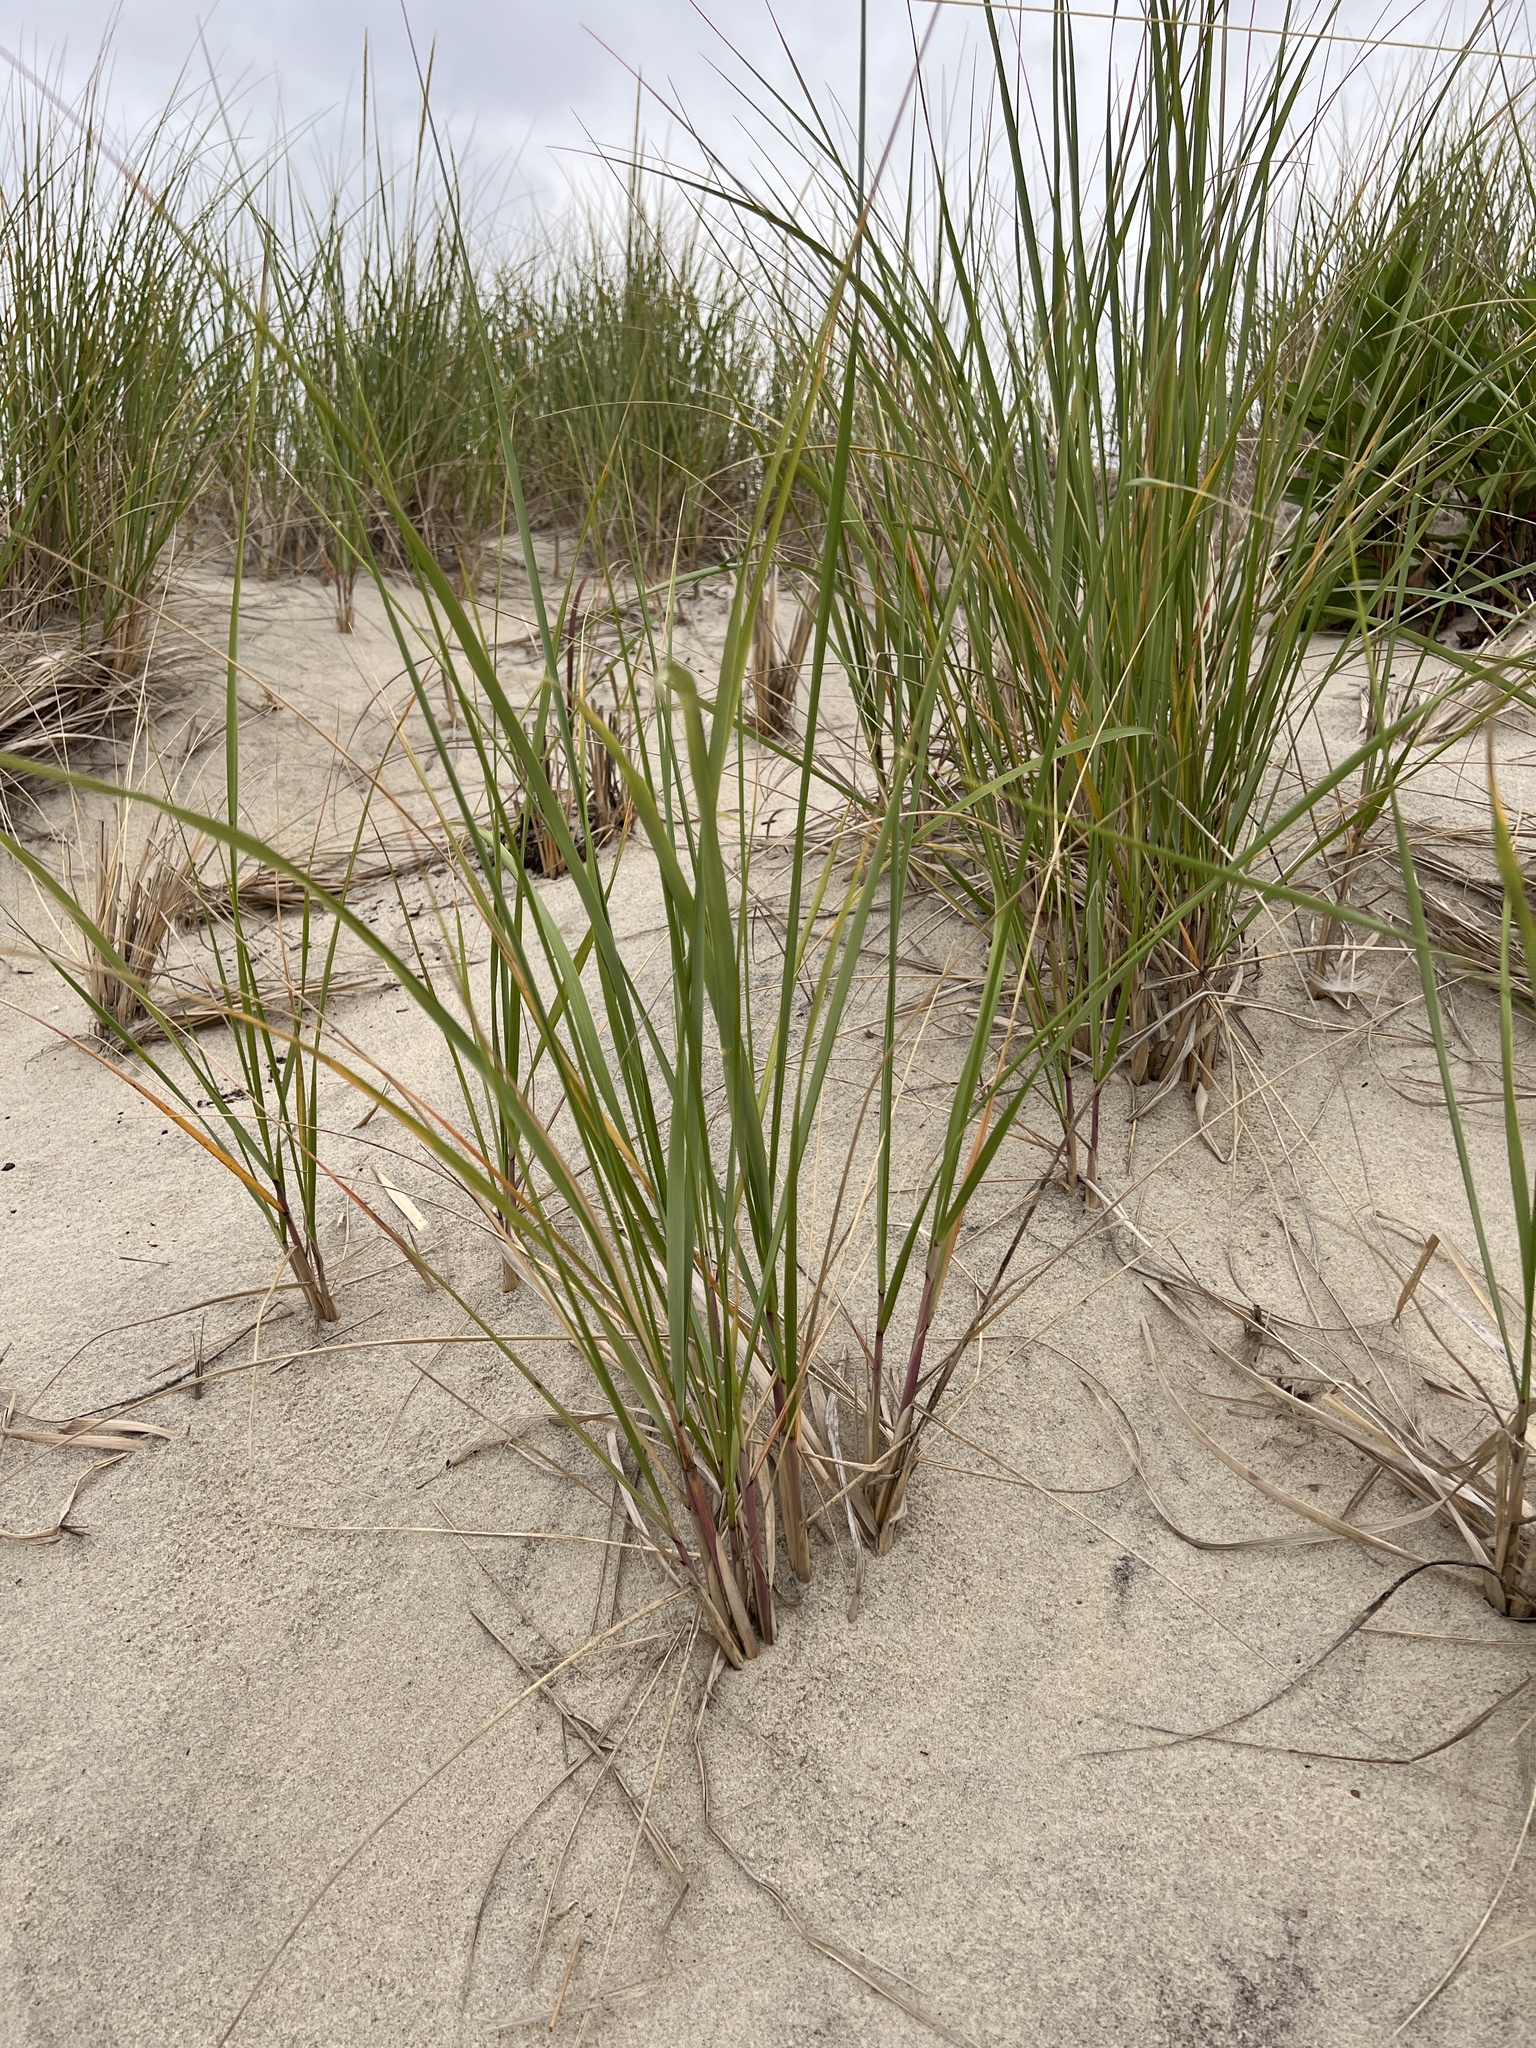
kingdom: Plantae
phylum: Tracheophyta
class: Liliopsida
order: Poales
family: Poaceae
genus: Calamagrostis
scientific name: Calamagrostis breviligulata
